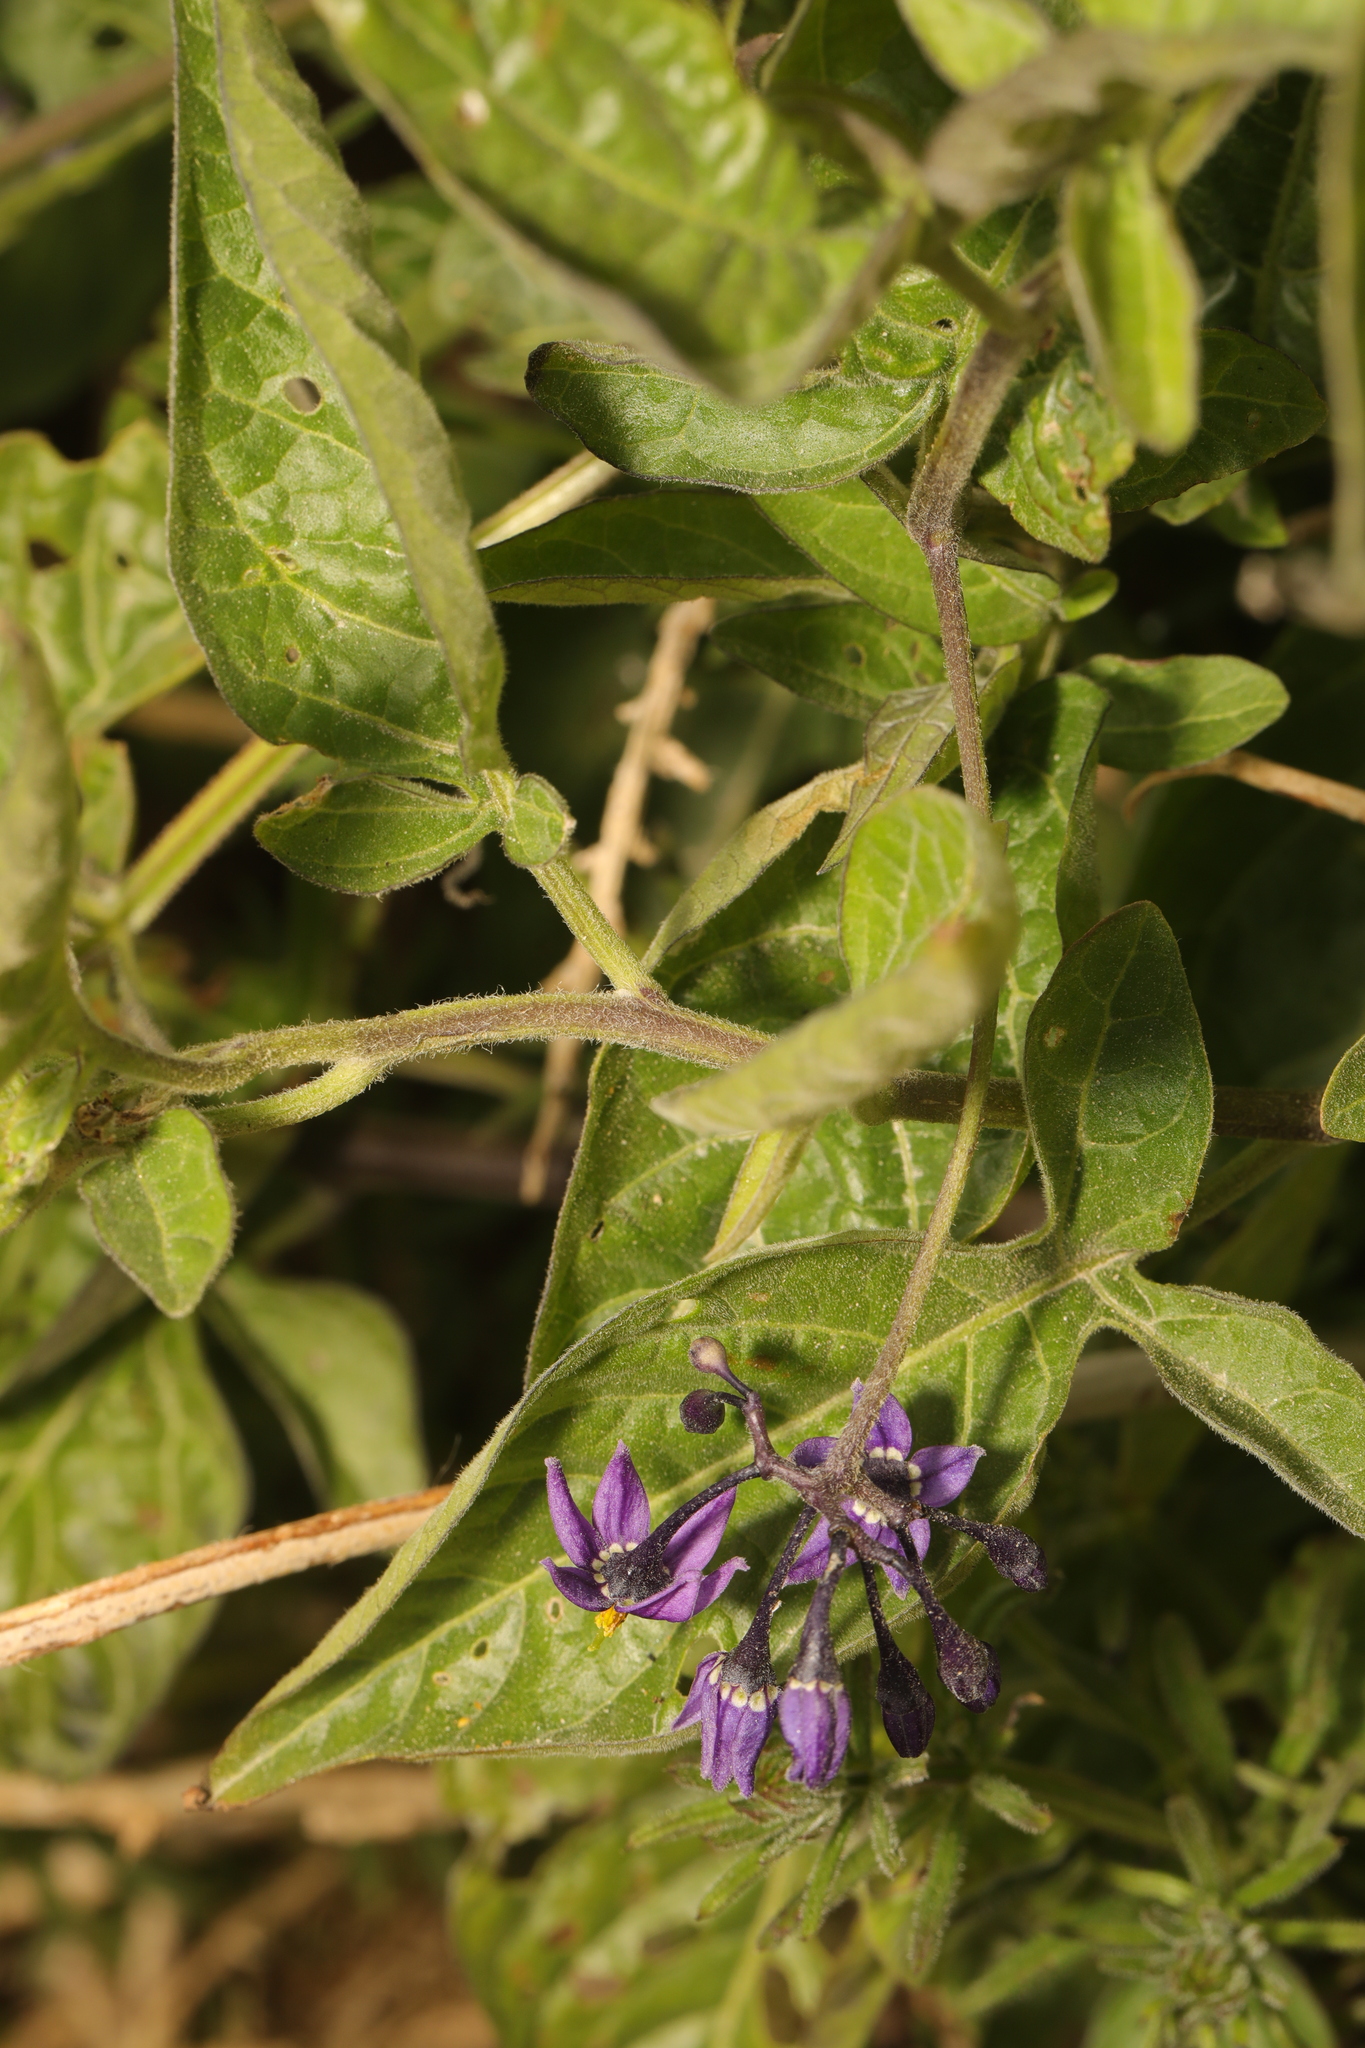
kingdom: Plantae
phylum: Tracheophyta
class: Magnoliopsida
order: Solanales
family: Solanaceae
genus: Solanum
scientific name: Solanum dulcamara
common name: Climbing nightshade
